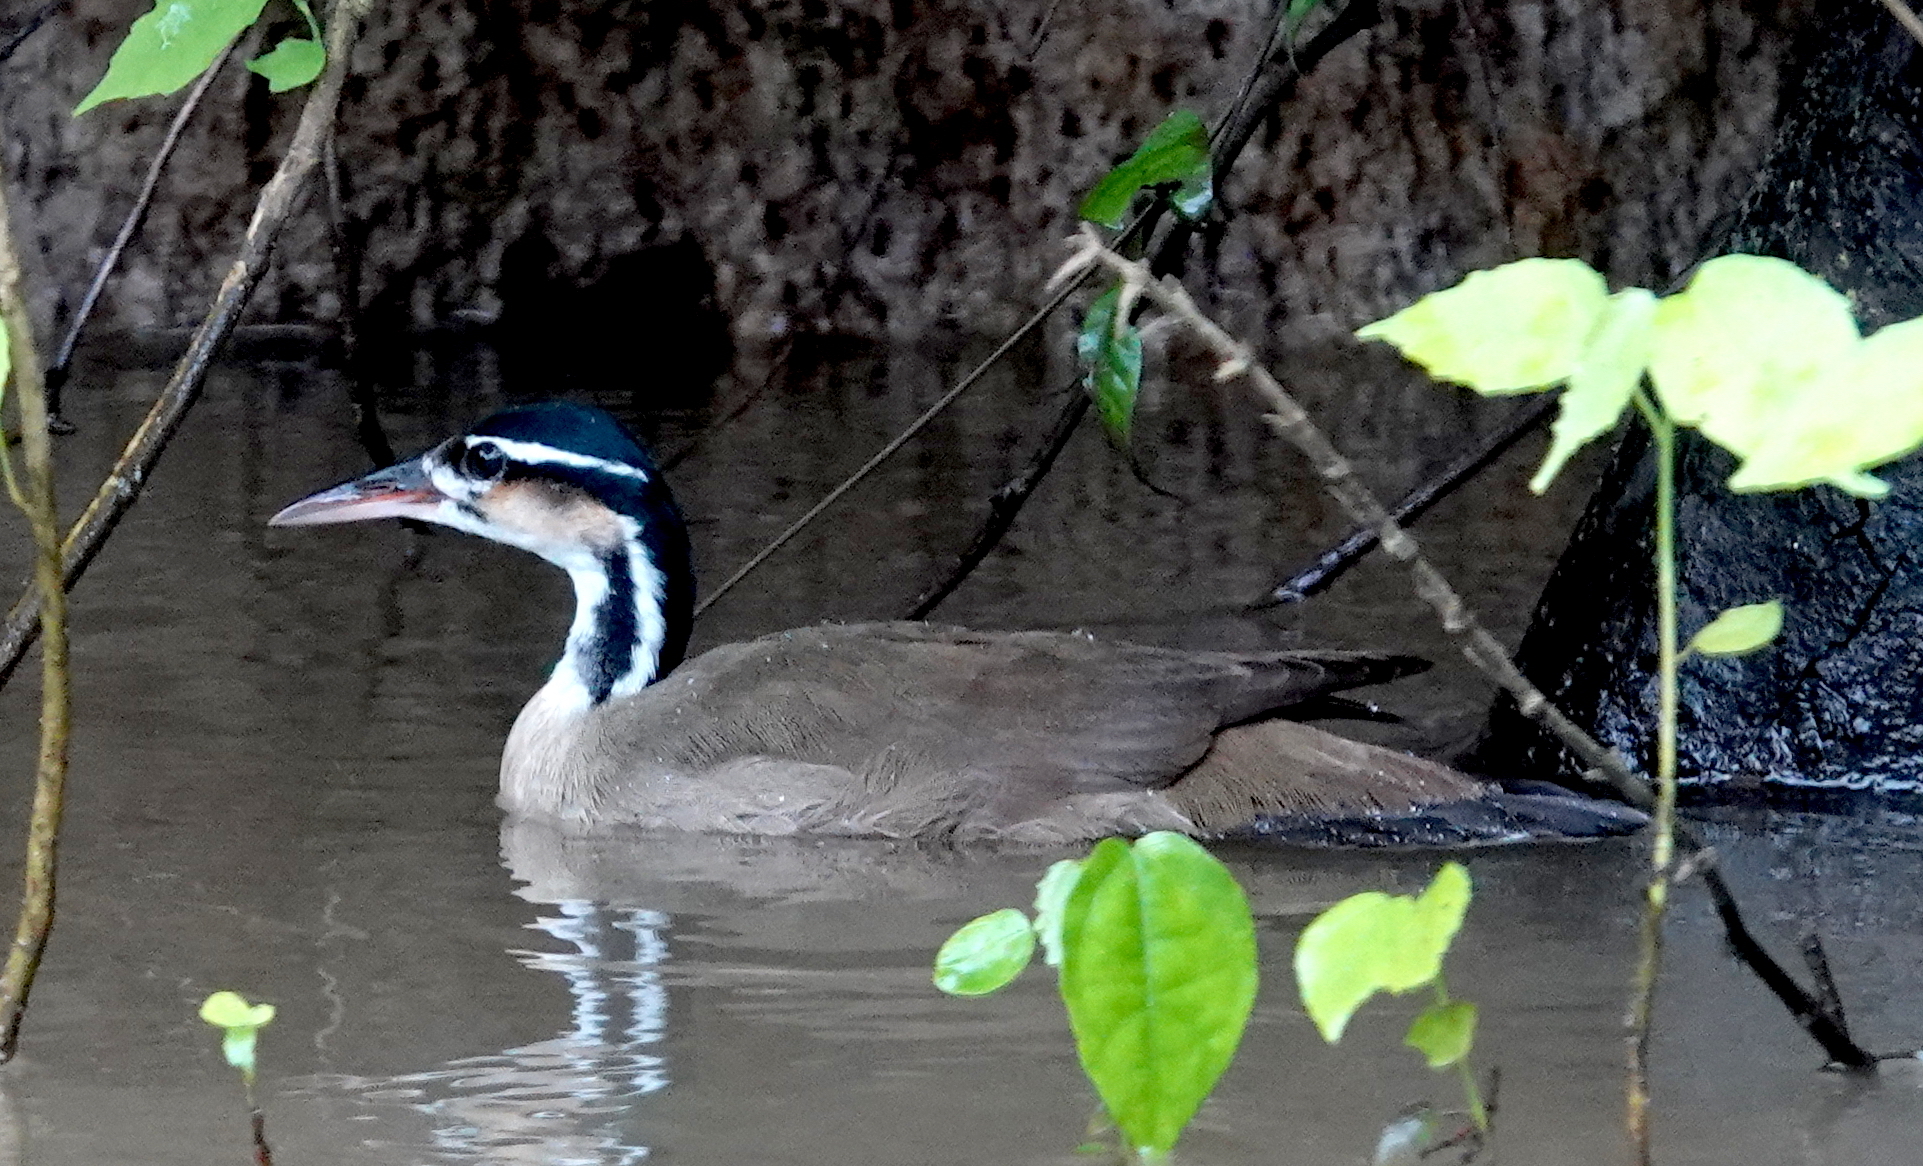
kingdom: Animalia
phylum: Chordata
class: Aves
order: Gruiformes
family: Heliornithidae
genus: Heliornis
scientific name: Heliornis fulica
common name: Sungrebe
